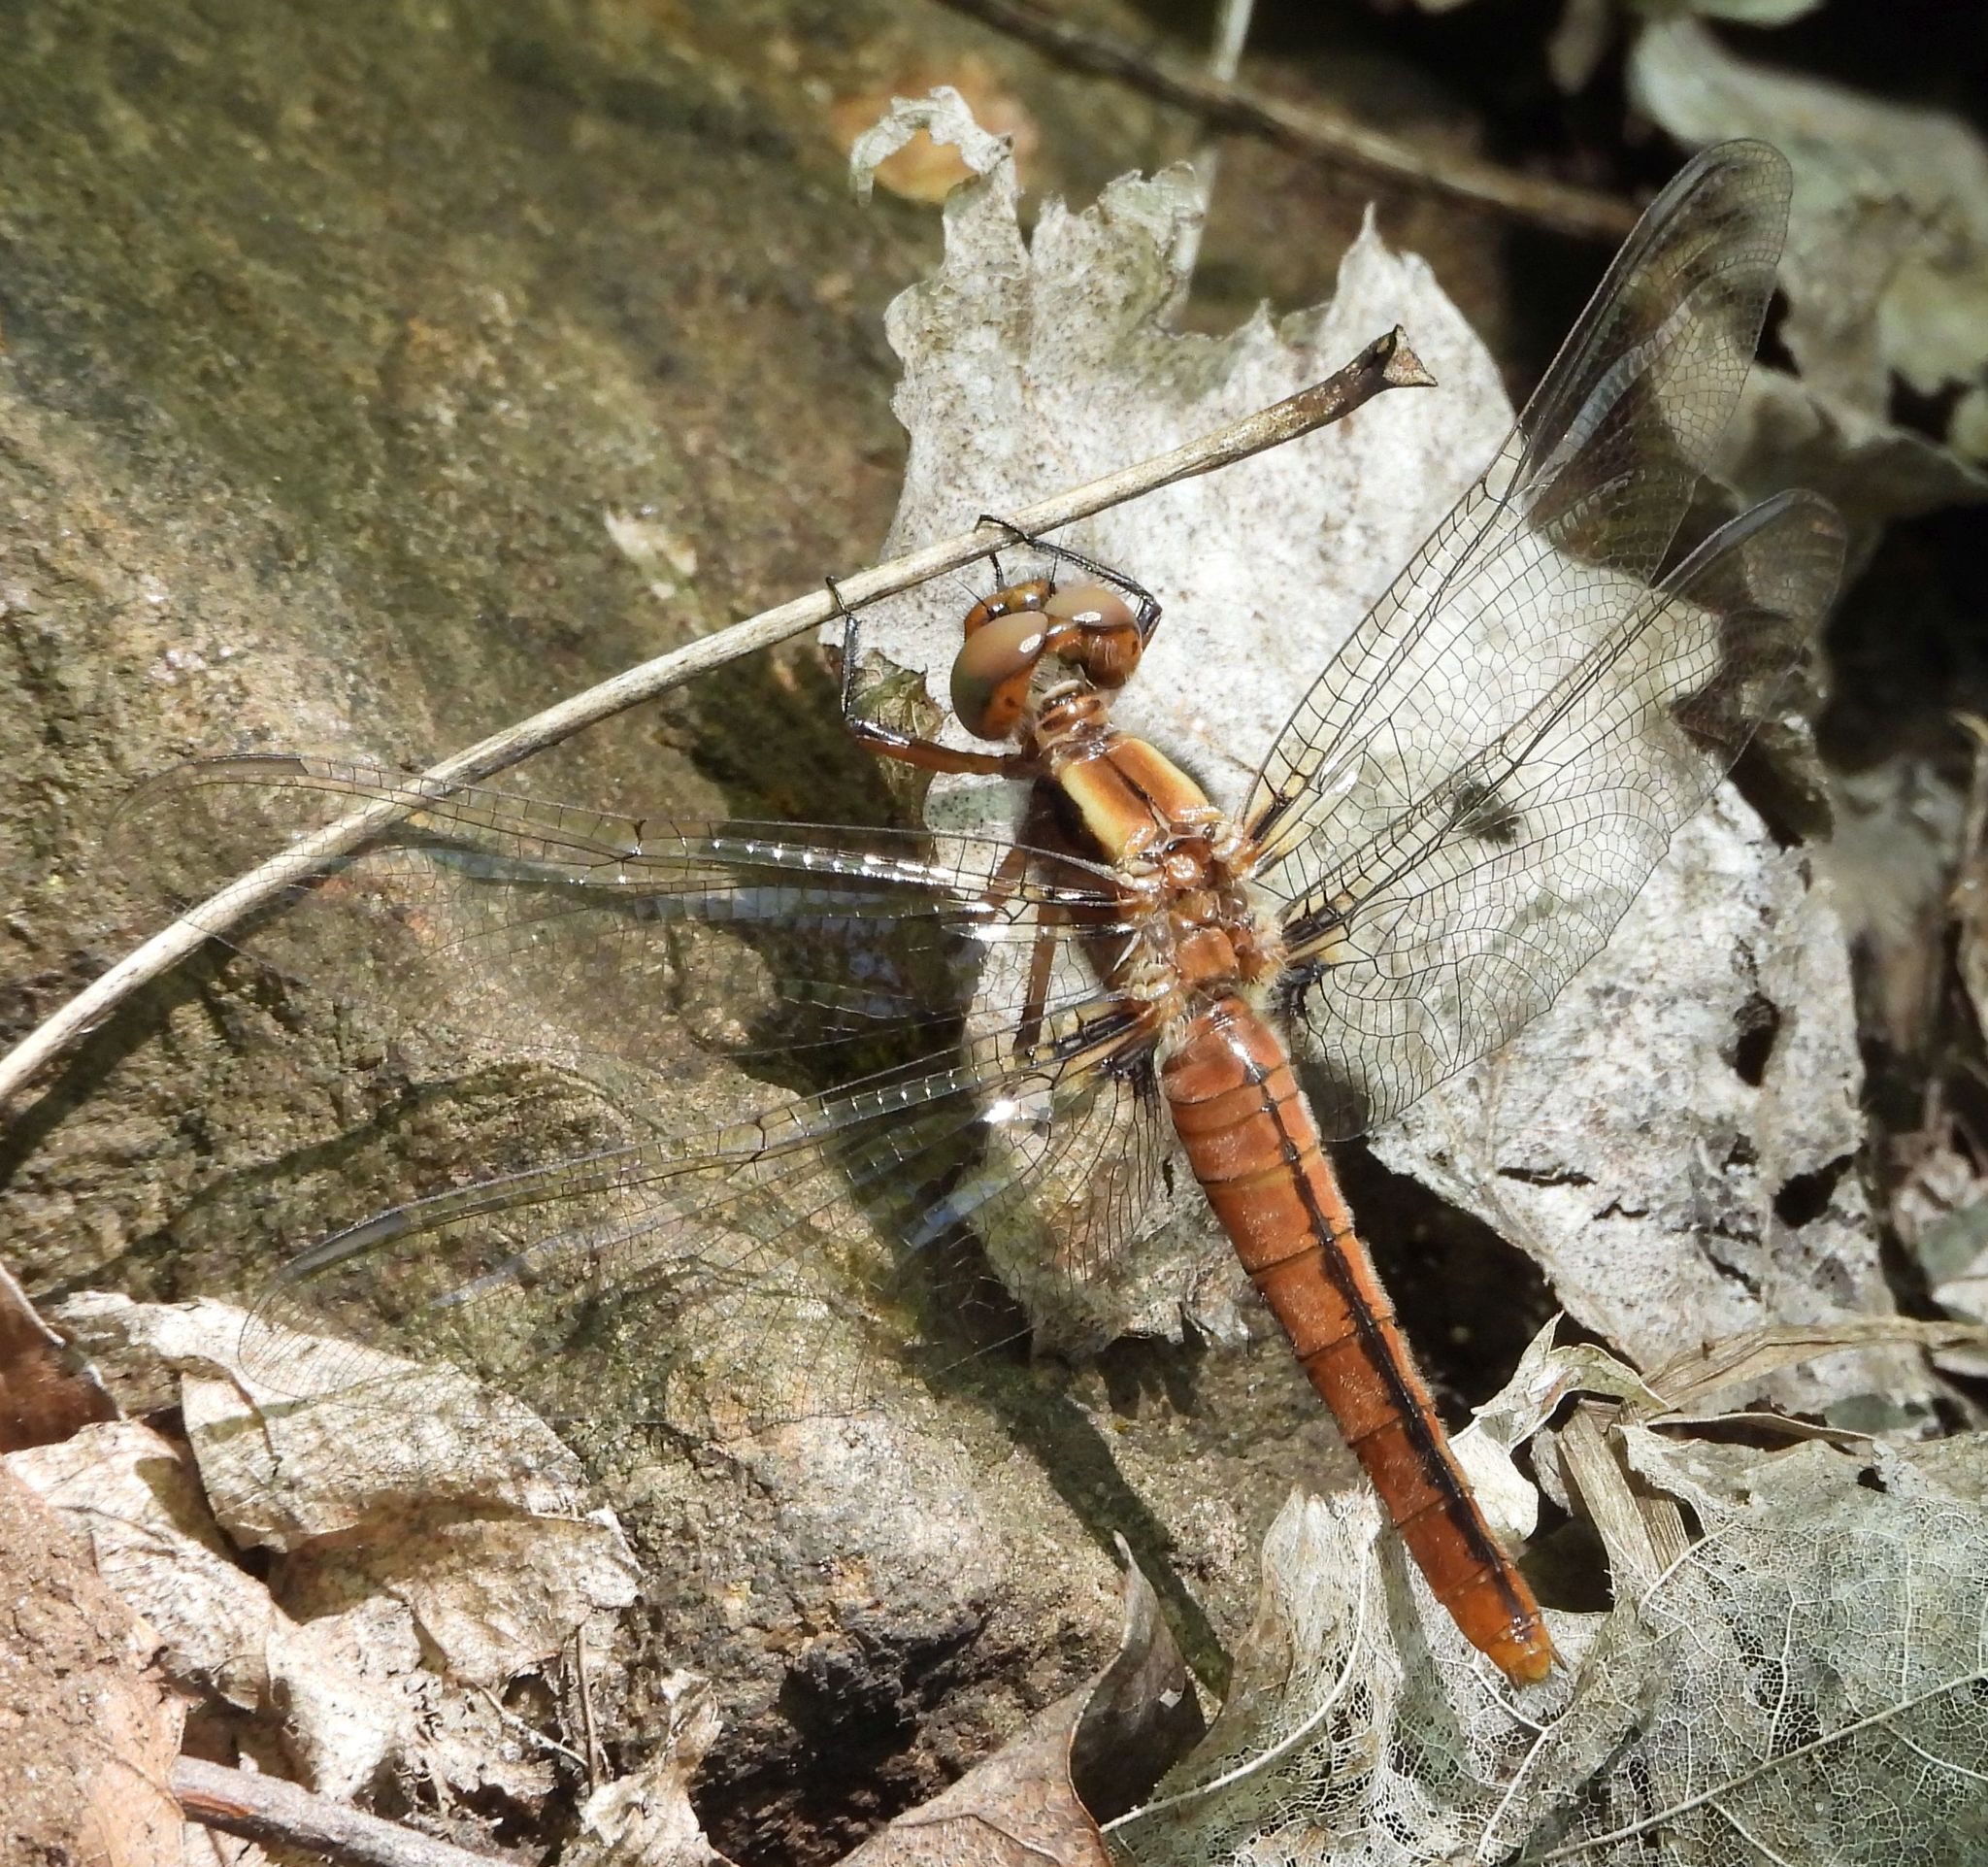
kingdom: Animalia
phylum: Arthropoda
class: Insecta
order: Odonata
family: Libellulidae
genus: Ladona
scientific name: Ladona julia
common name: Chalk-fronted corporal
